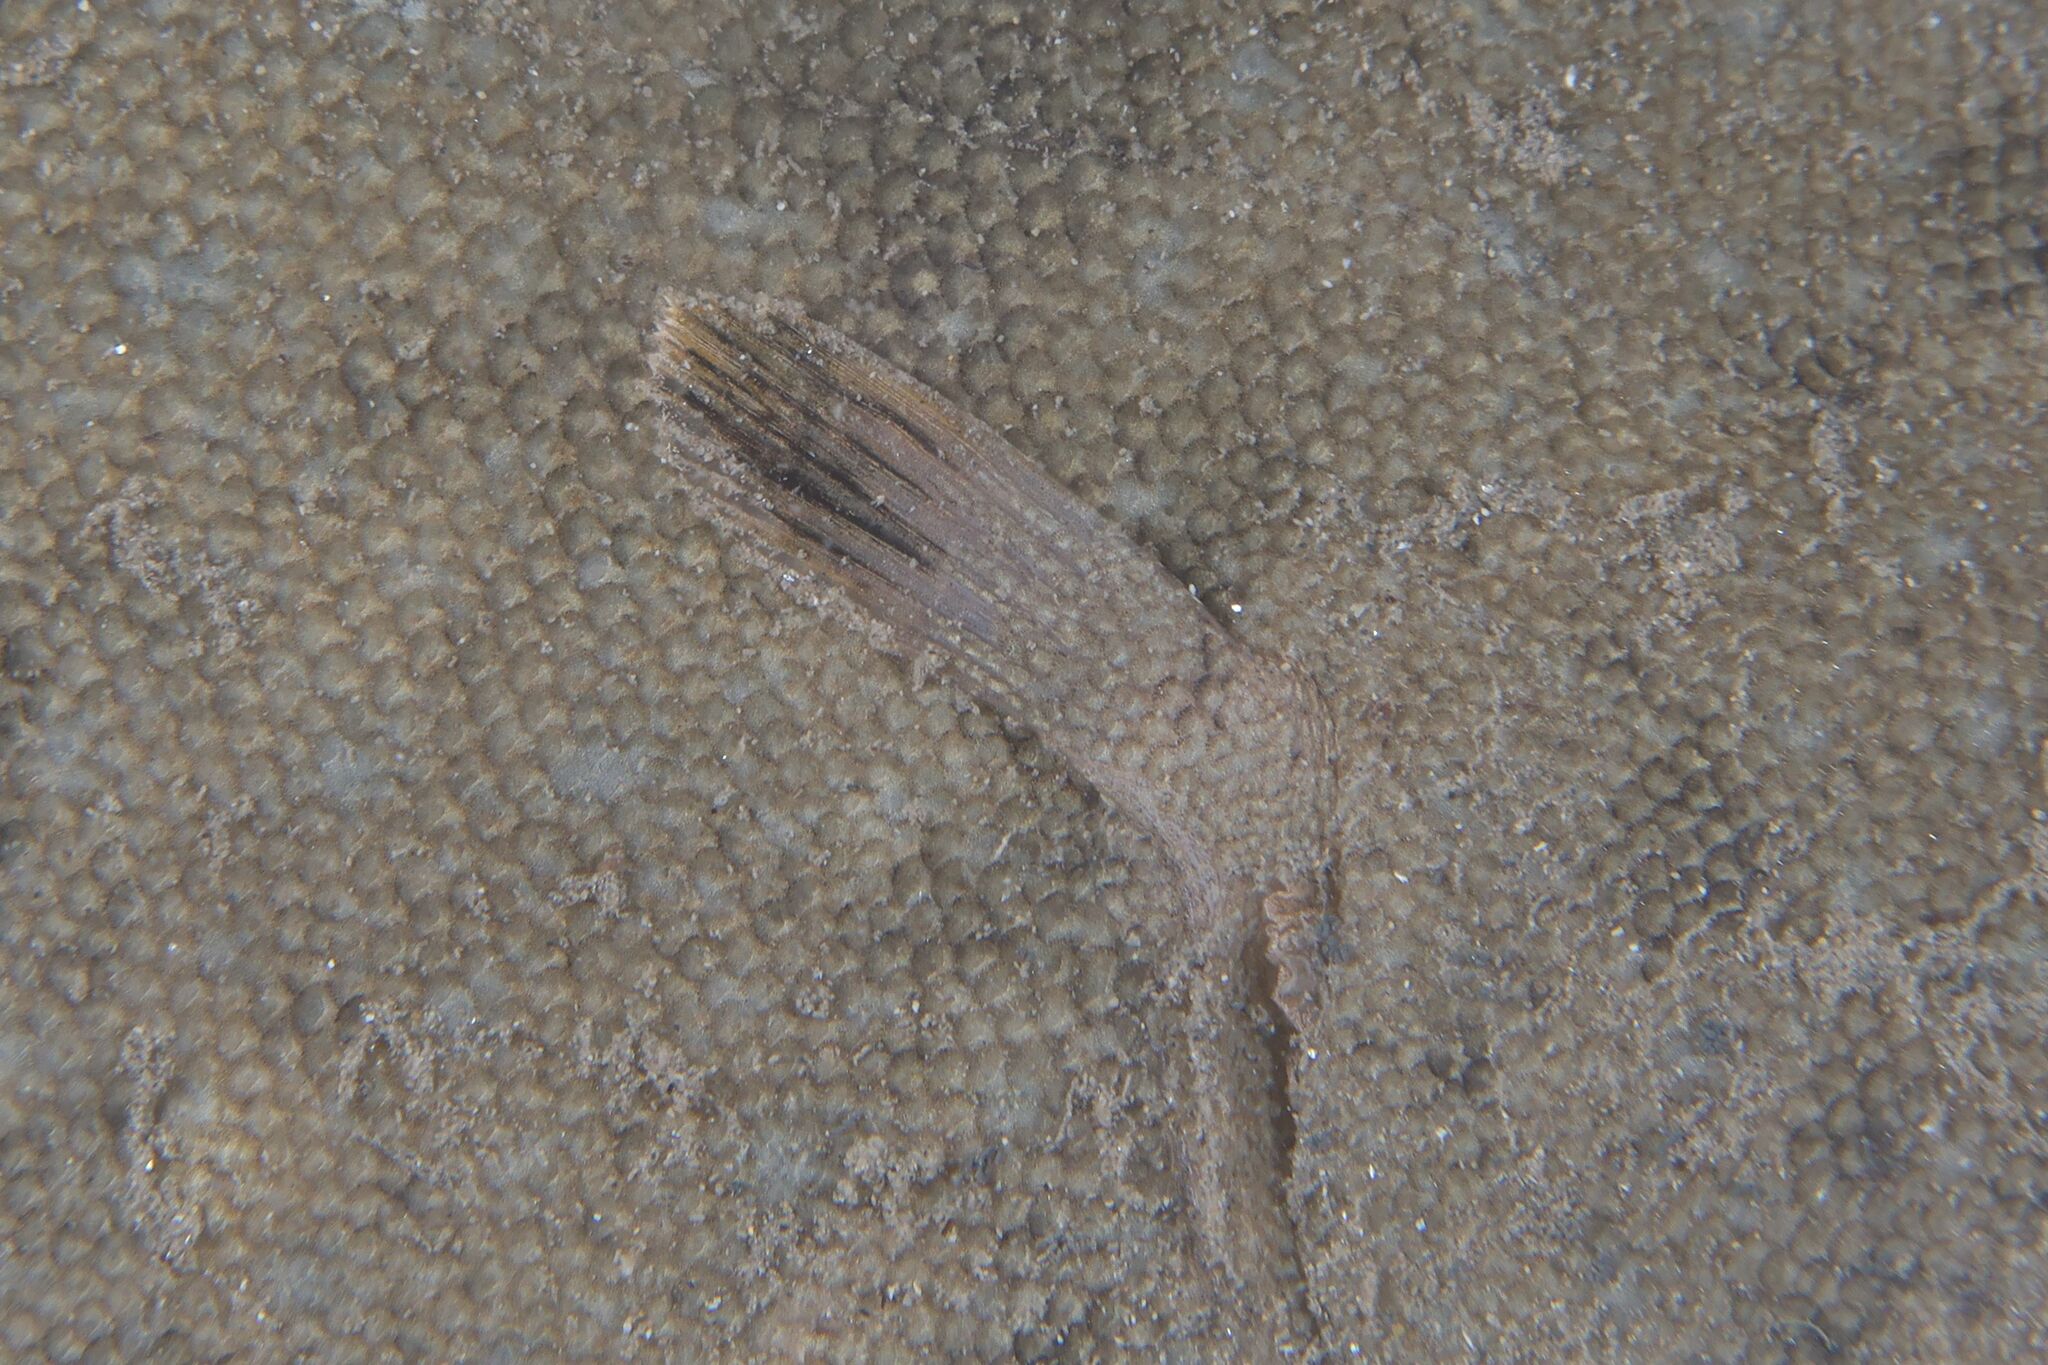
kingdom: Animalia
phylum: Chordata
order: Pleuronectiformes
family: Soleidae
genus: Solea
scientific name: Solea senegalensis
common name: Senegalese sole
